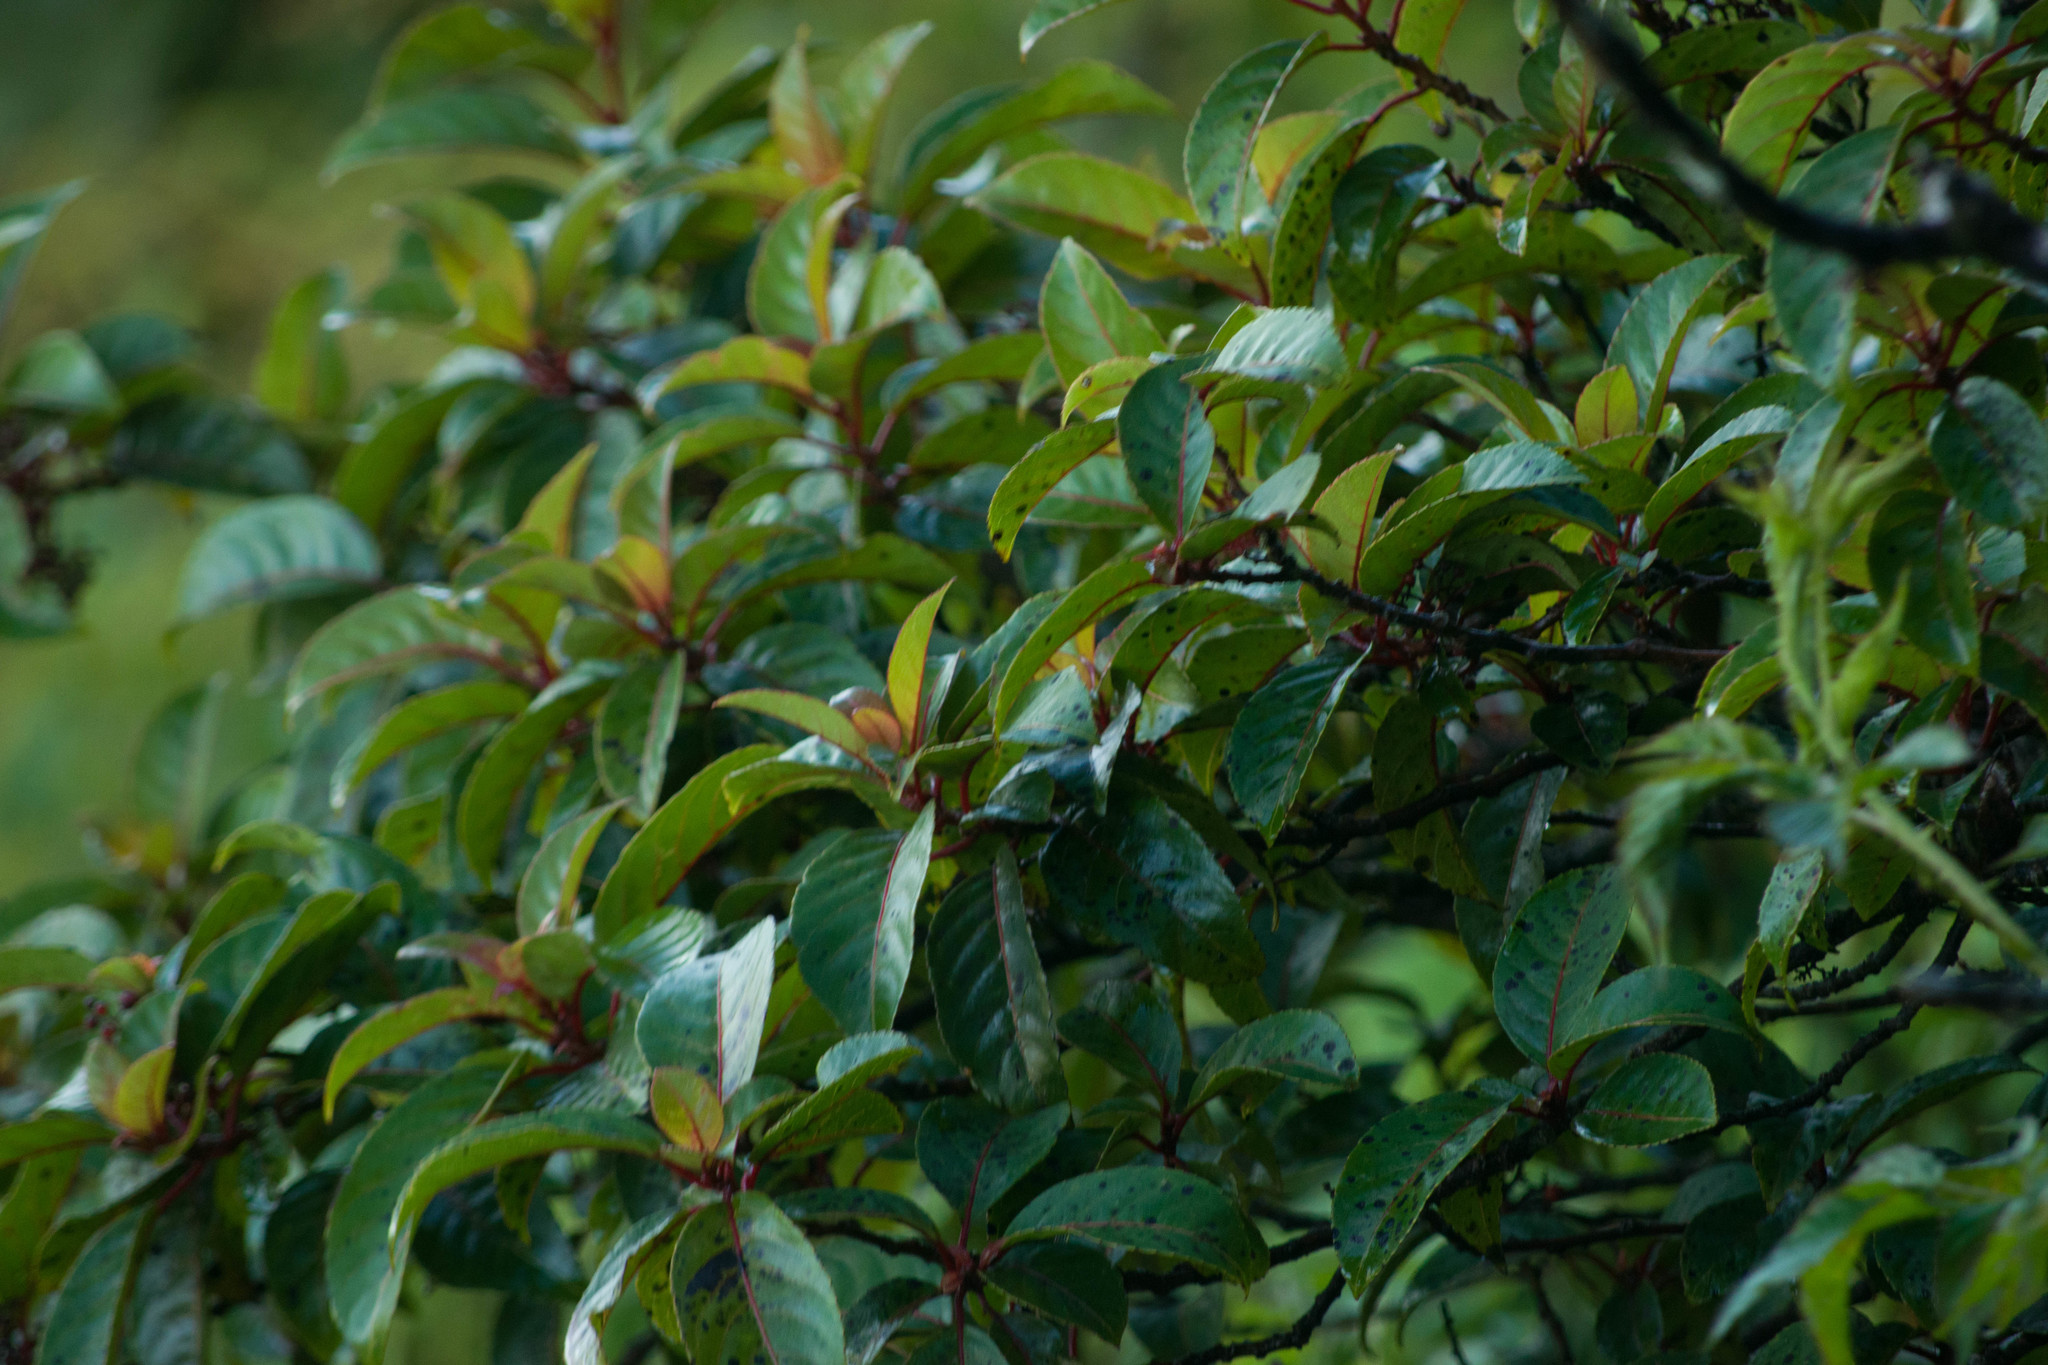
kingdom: Plantae
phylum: Tracheophyta
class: Magnoliopsida
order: Huerteales
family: Dipentodontaceae
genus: Perrottetia
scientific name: Perrottetia sandwicensis
